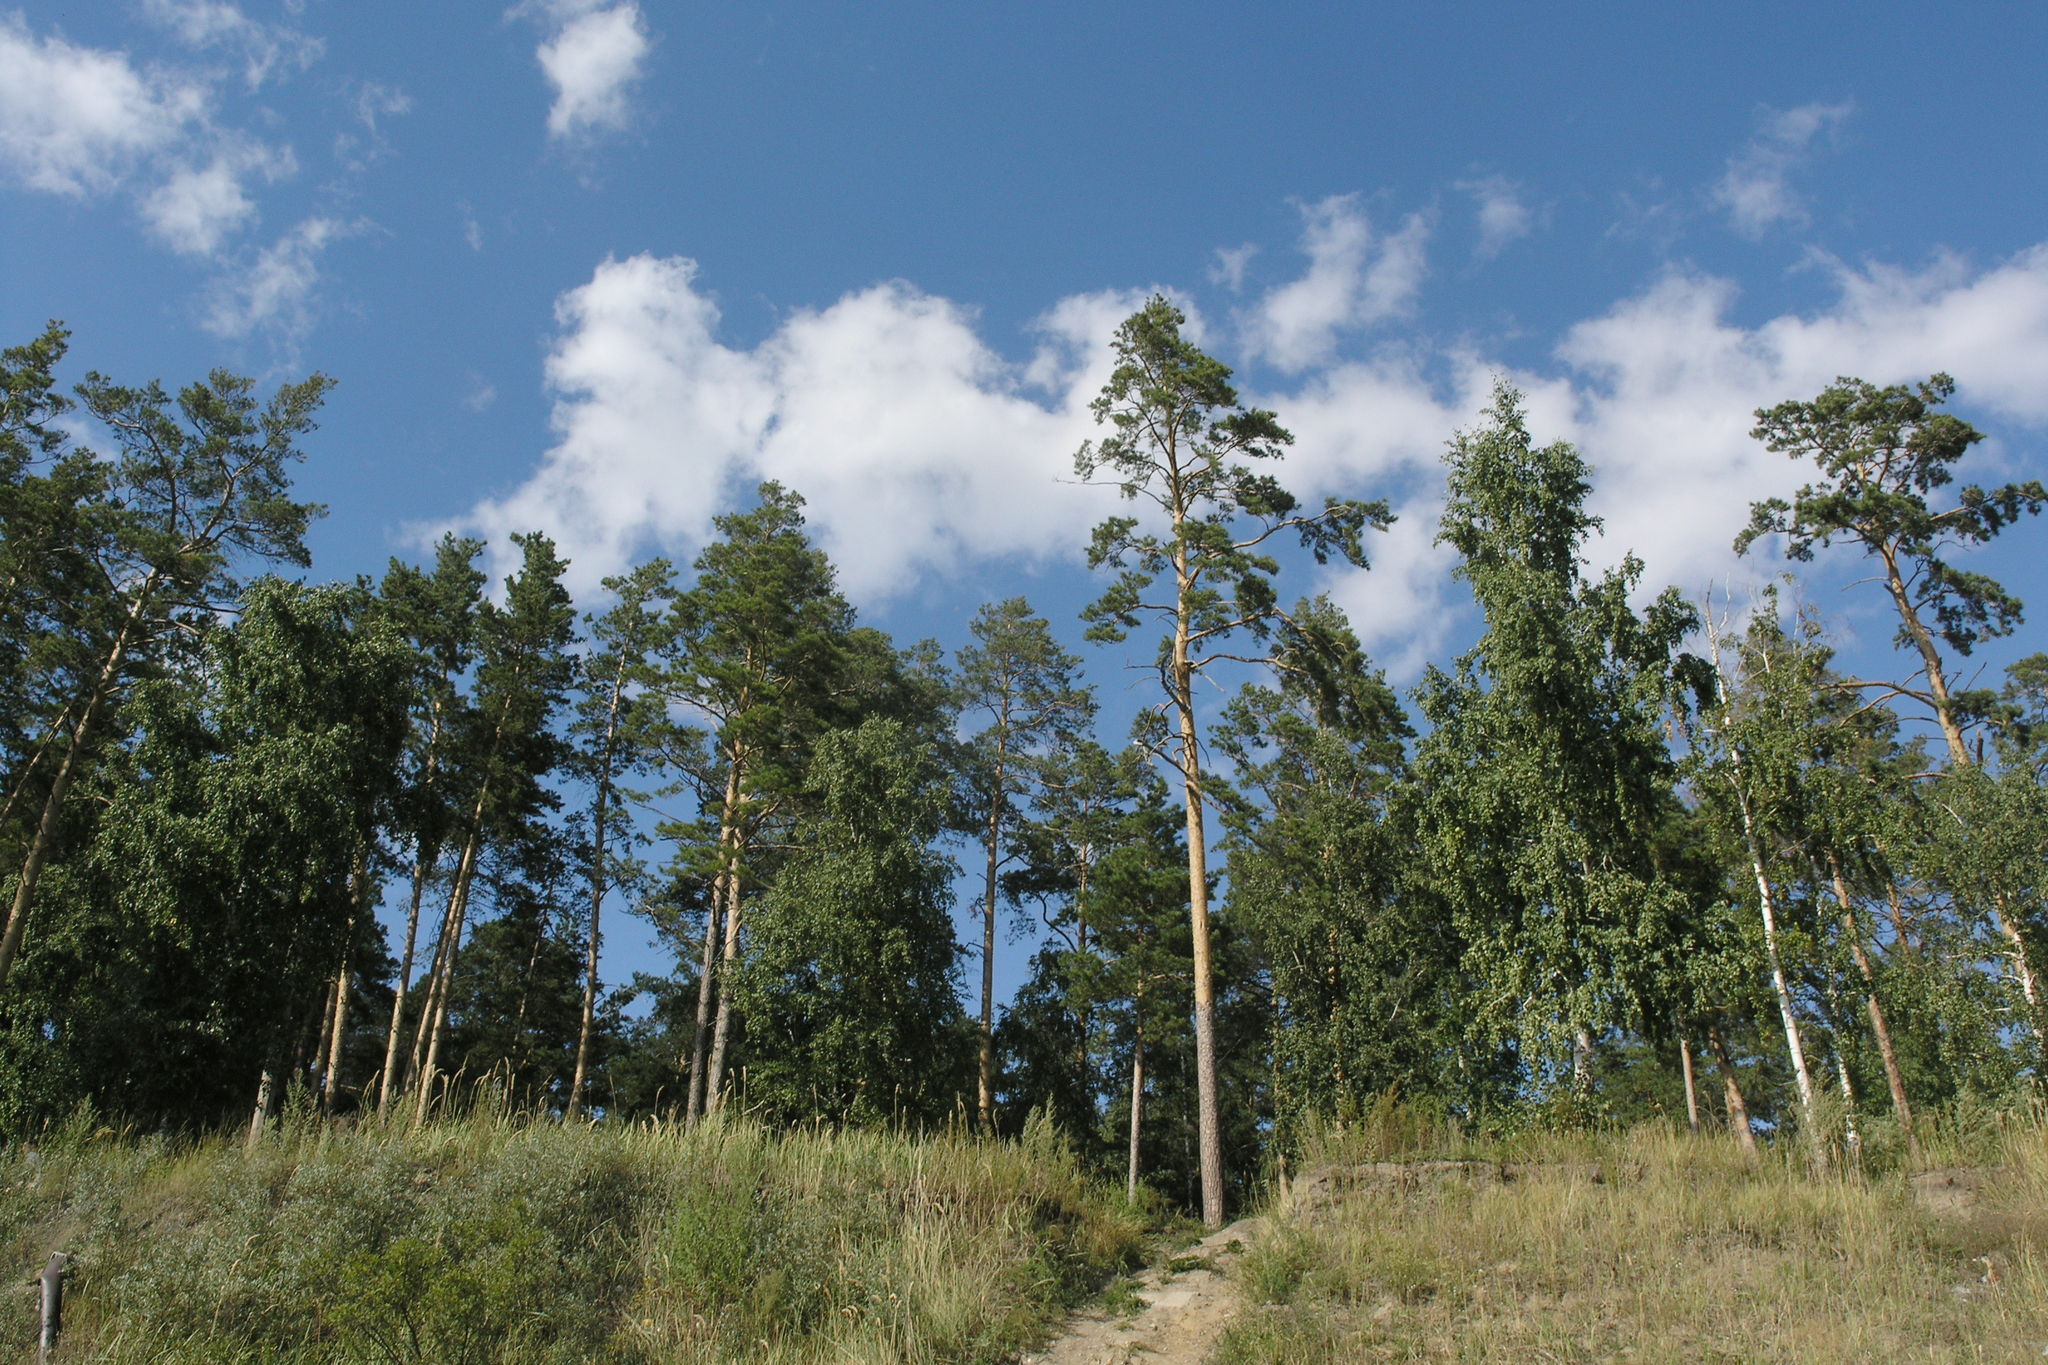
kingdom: Plantae
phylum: Tracheophyta
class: Pinopsida
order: Pinales
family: Pinaceae
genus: Pinus
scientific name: Pinus sylvestris
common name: Scots pine
